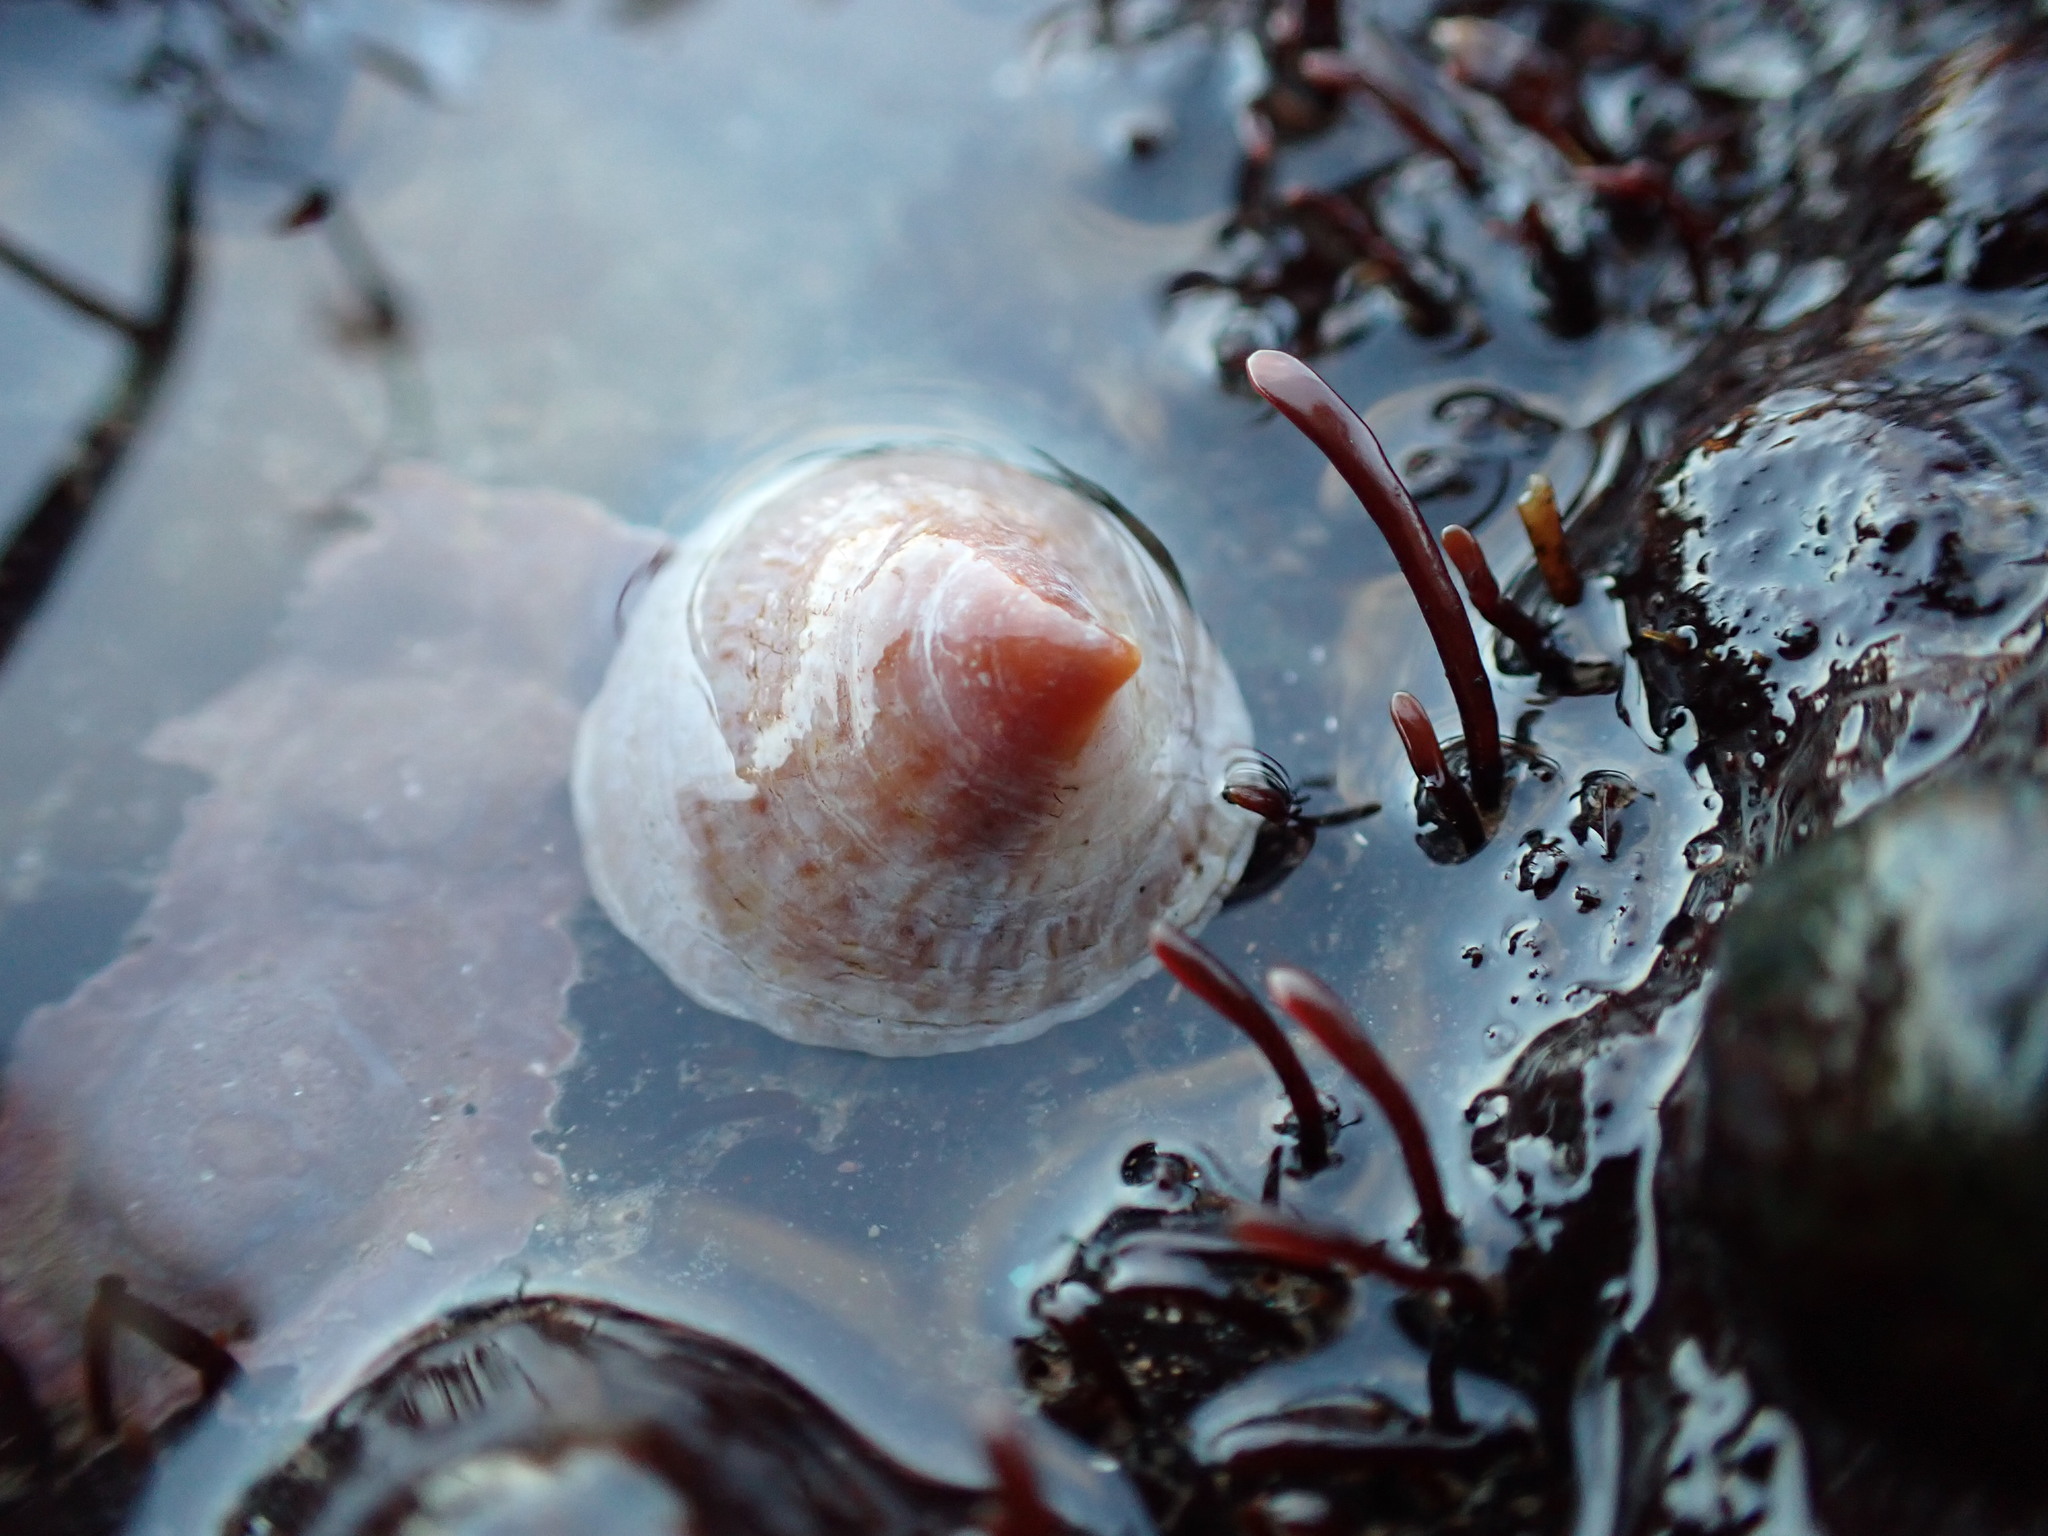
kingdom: Animalia
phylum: Mollusca
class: Gastropoda
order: Littorinimorpha
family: Calyptraeidae
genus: Crucibulum
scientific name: Crucibulum striatum
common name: Striate cup-and -saucer
